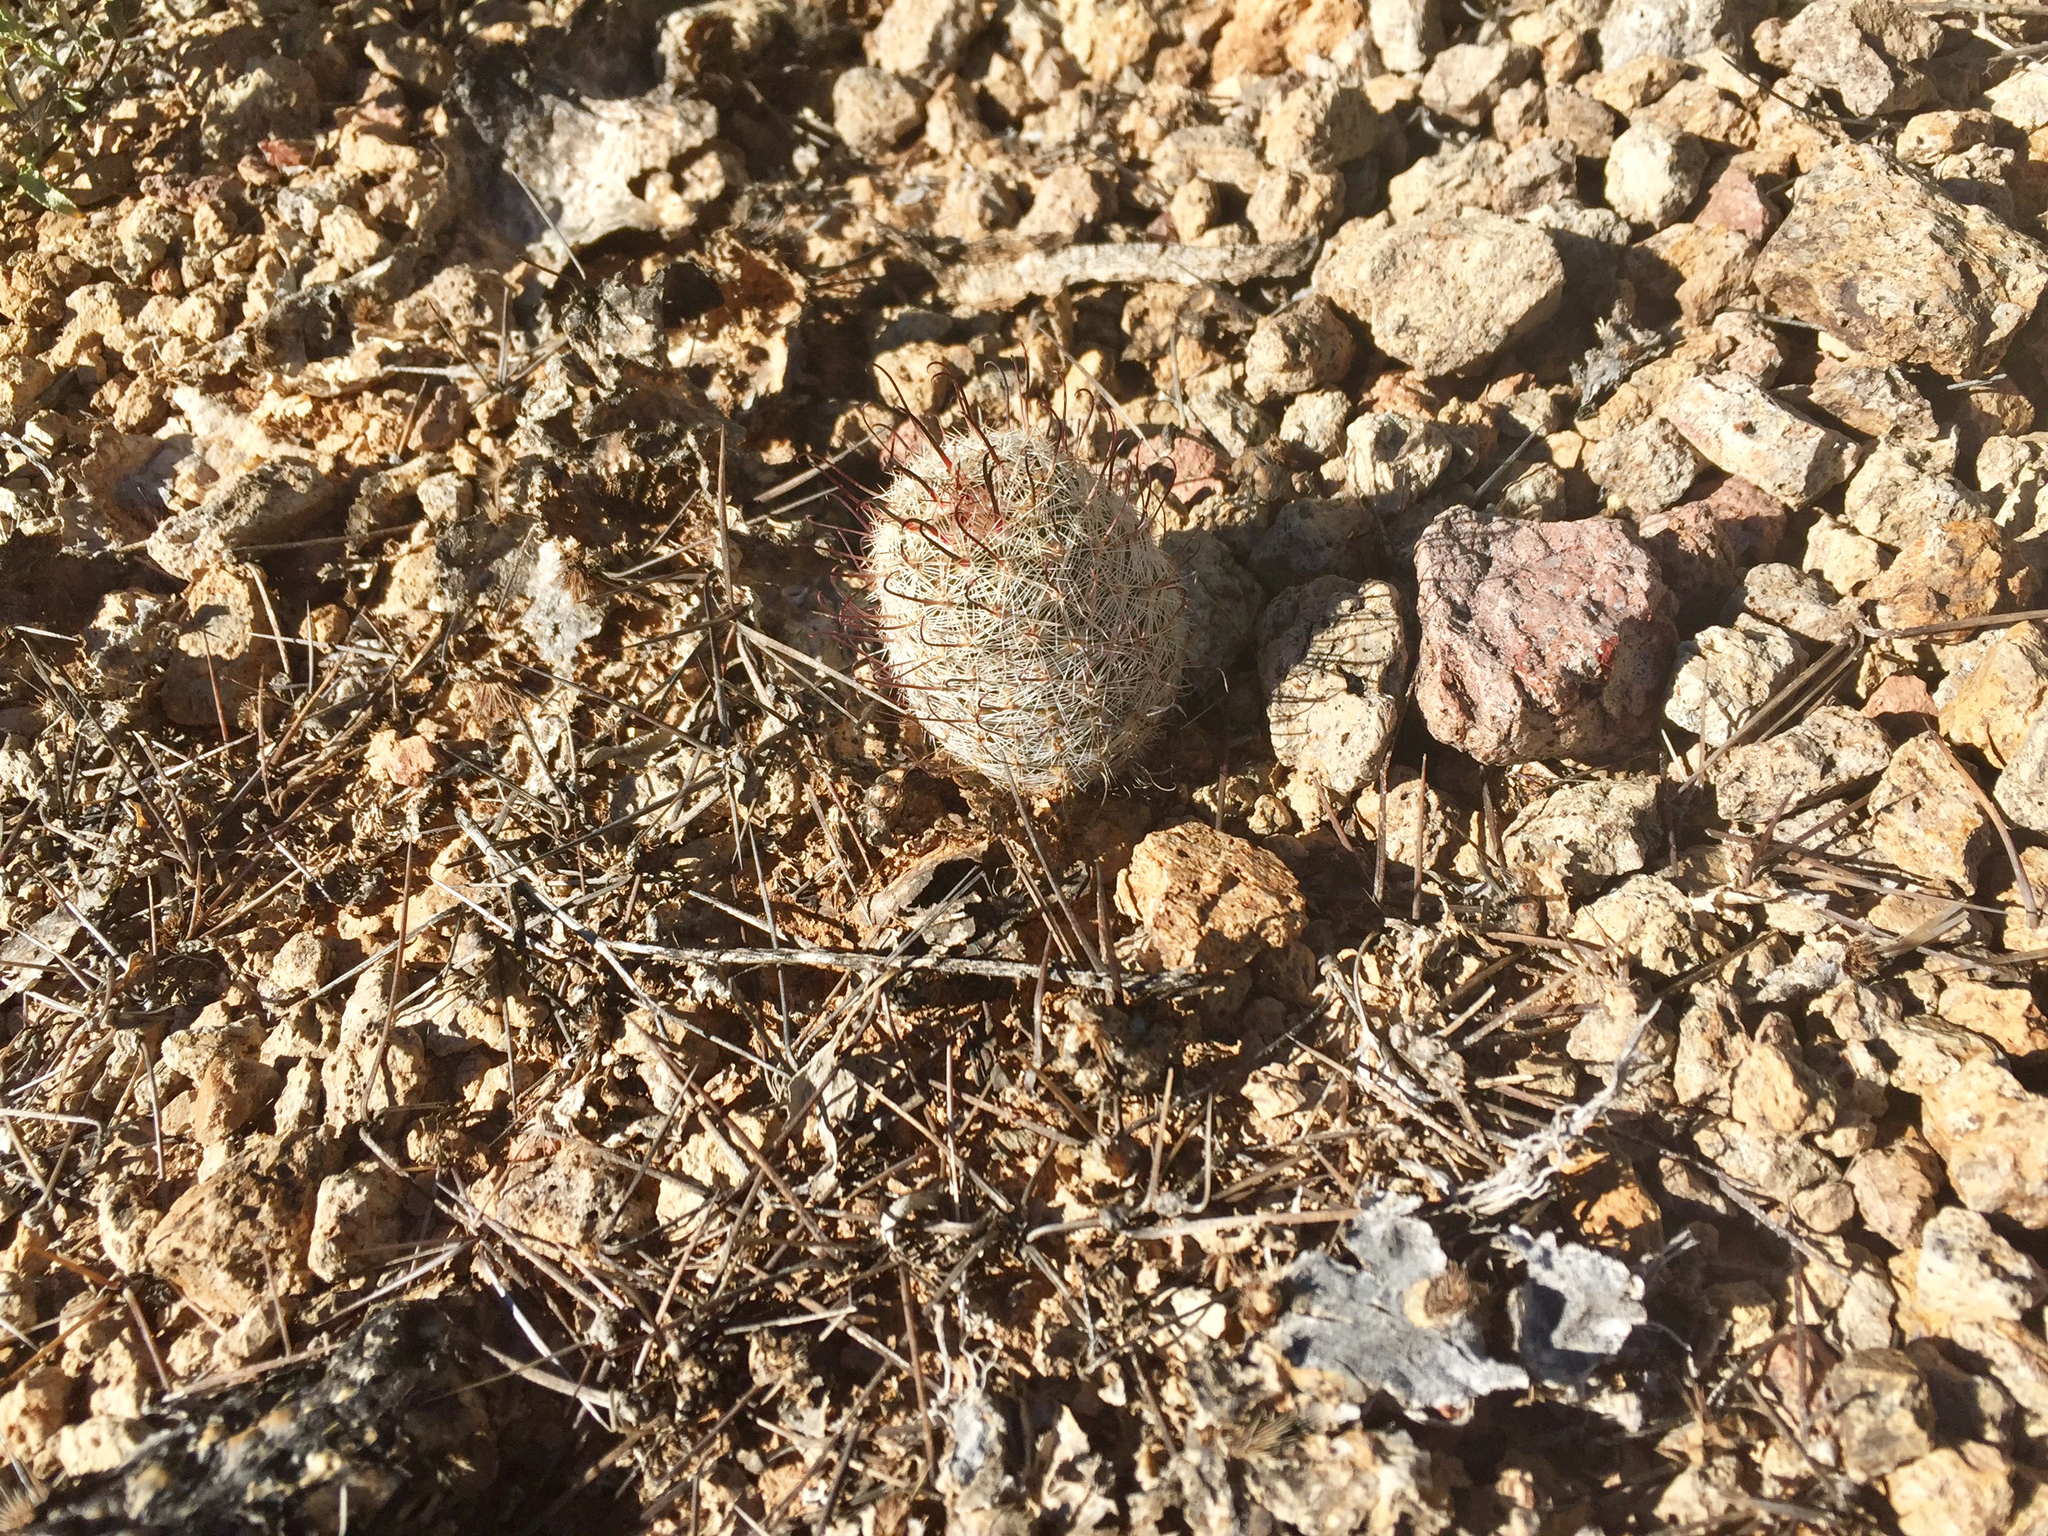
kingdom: Plantae
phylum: Tracheophyta
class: Magnoliopsida
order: Caryophyllales
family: Cactaceae
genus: Cochemiea
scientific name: Cochemiea grahamii
